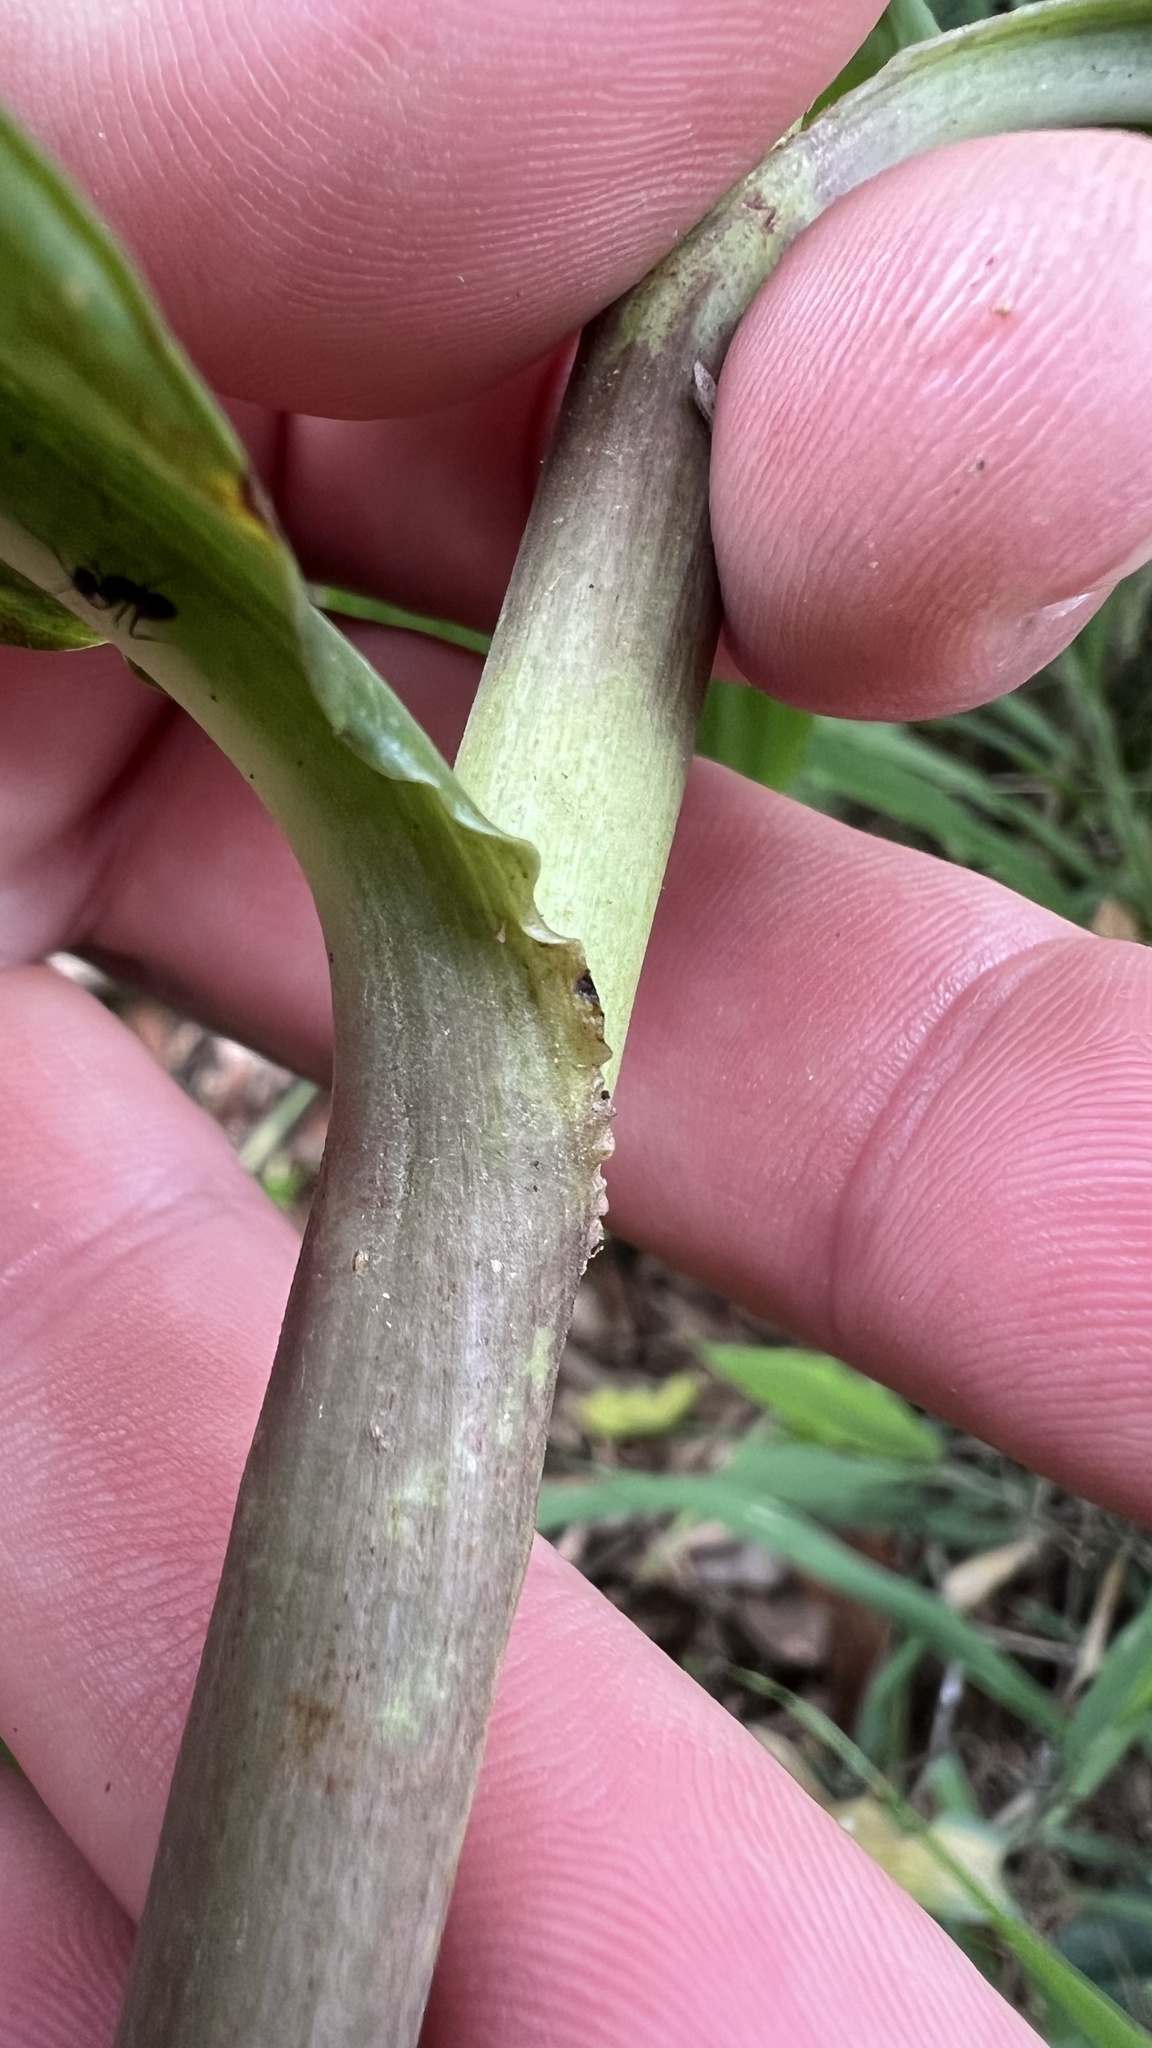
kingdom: Plantae
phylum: Tracheophyta
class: Liliopsida
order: Commelinales
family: Commelinaceae
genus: Pollia
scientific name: Pollia crispata
